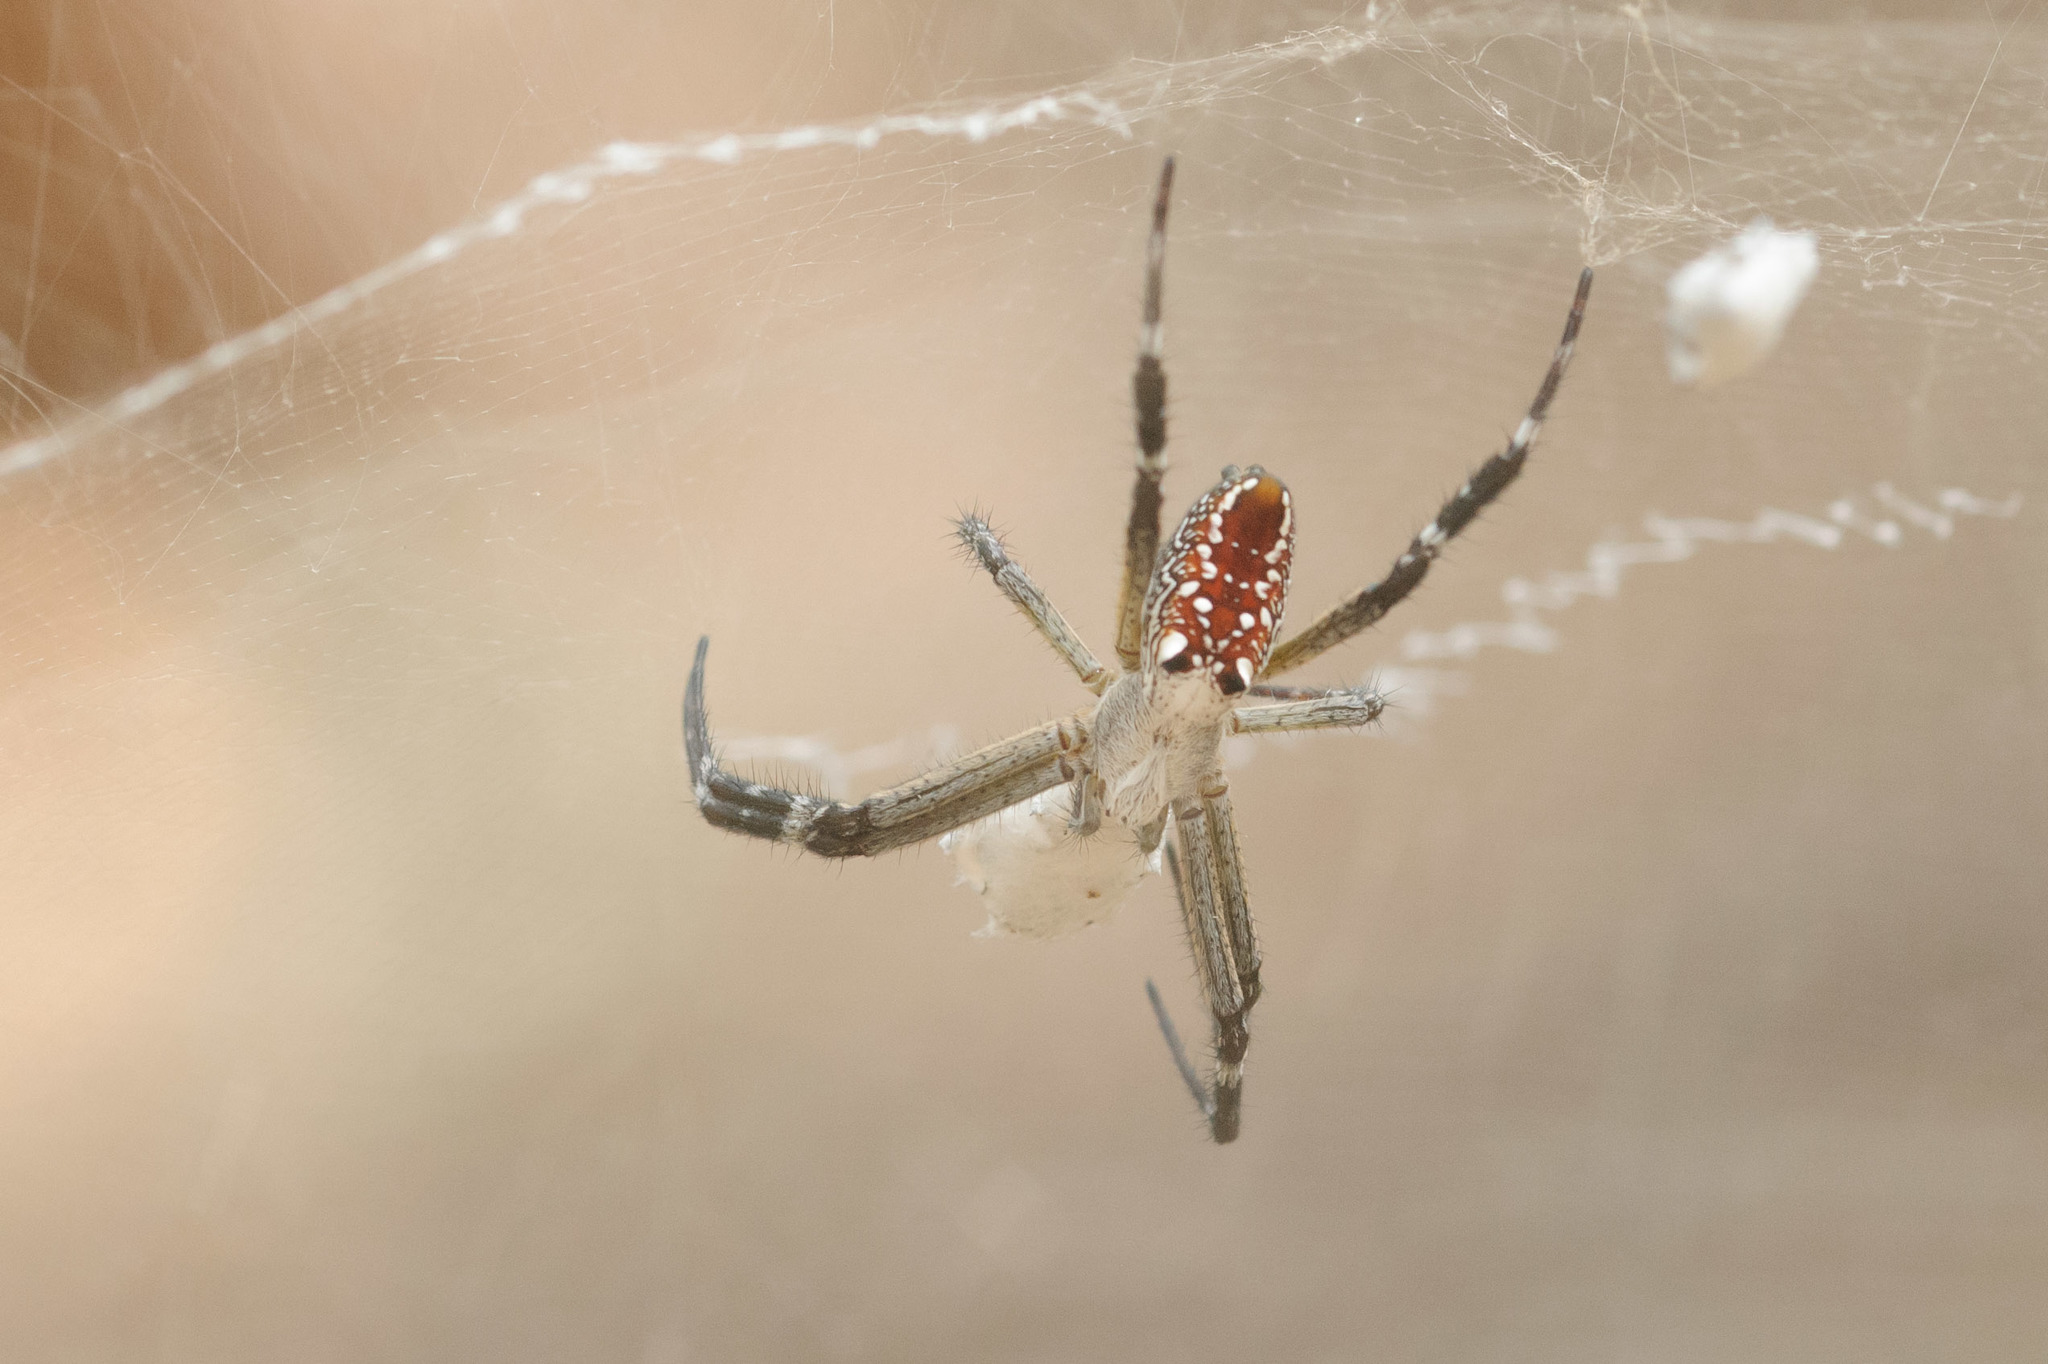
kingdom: Chromista
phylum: Ochrophyta
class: Dictyochophyceae
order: Pedinellales
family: Cyrtophoraceae
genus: Cyrtophora
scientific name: Cyrtophora moluccensis
